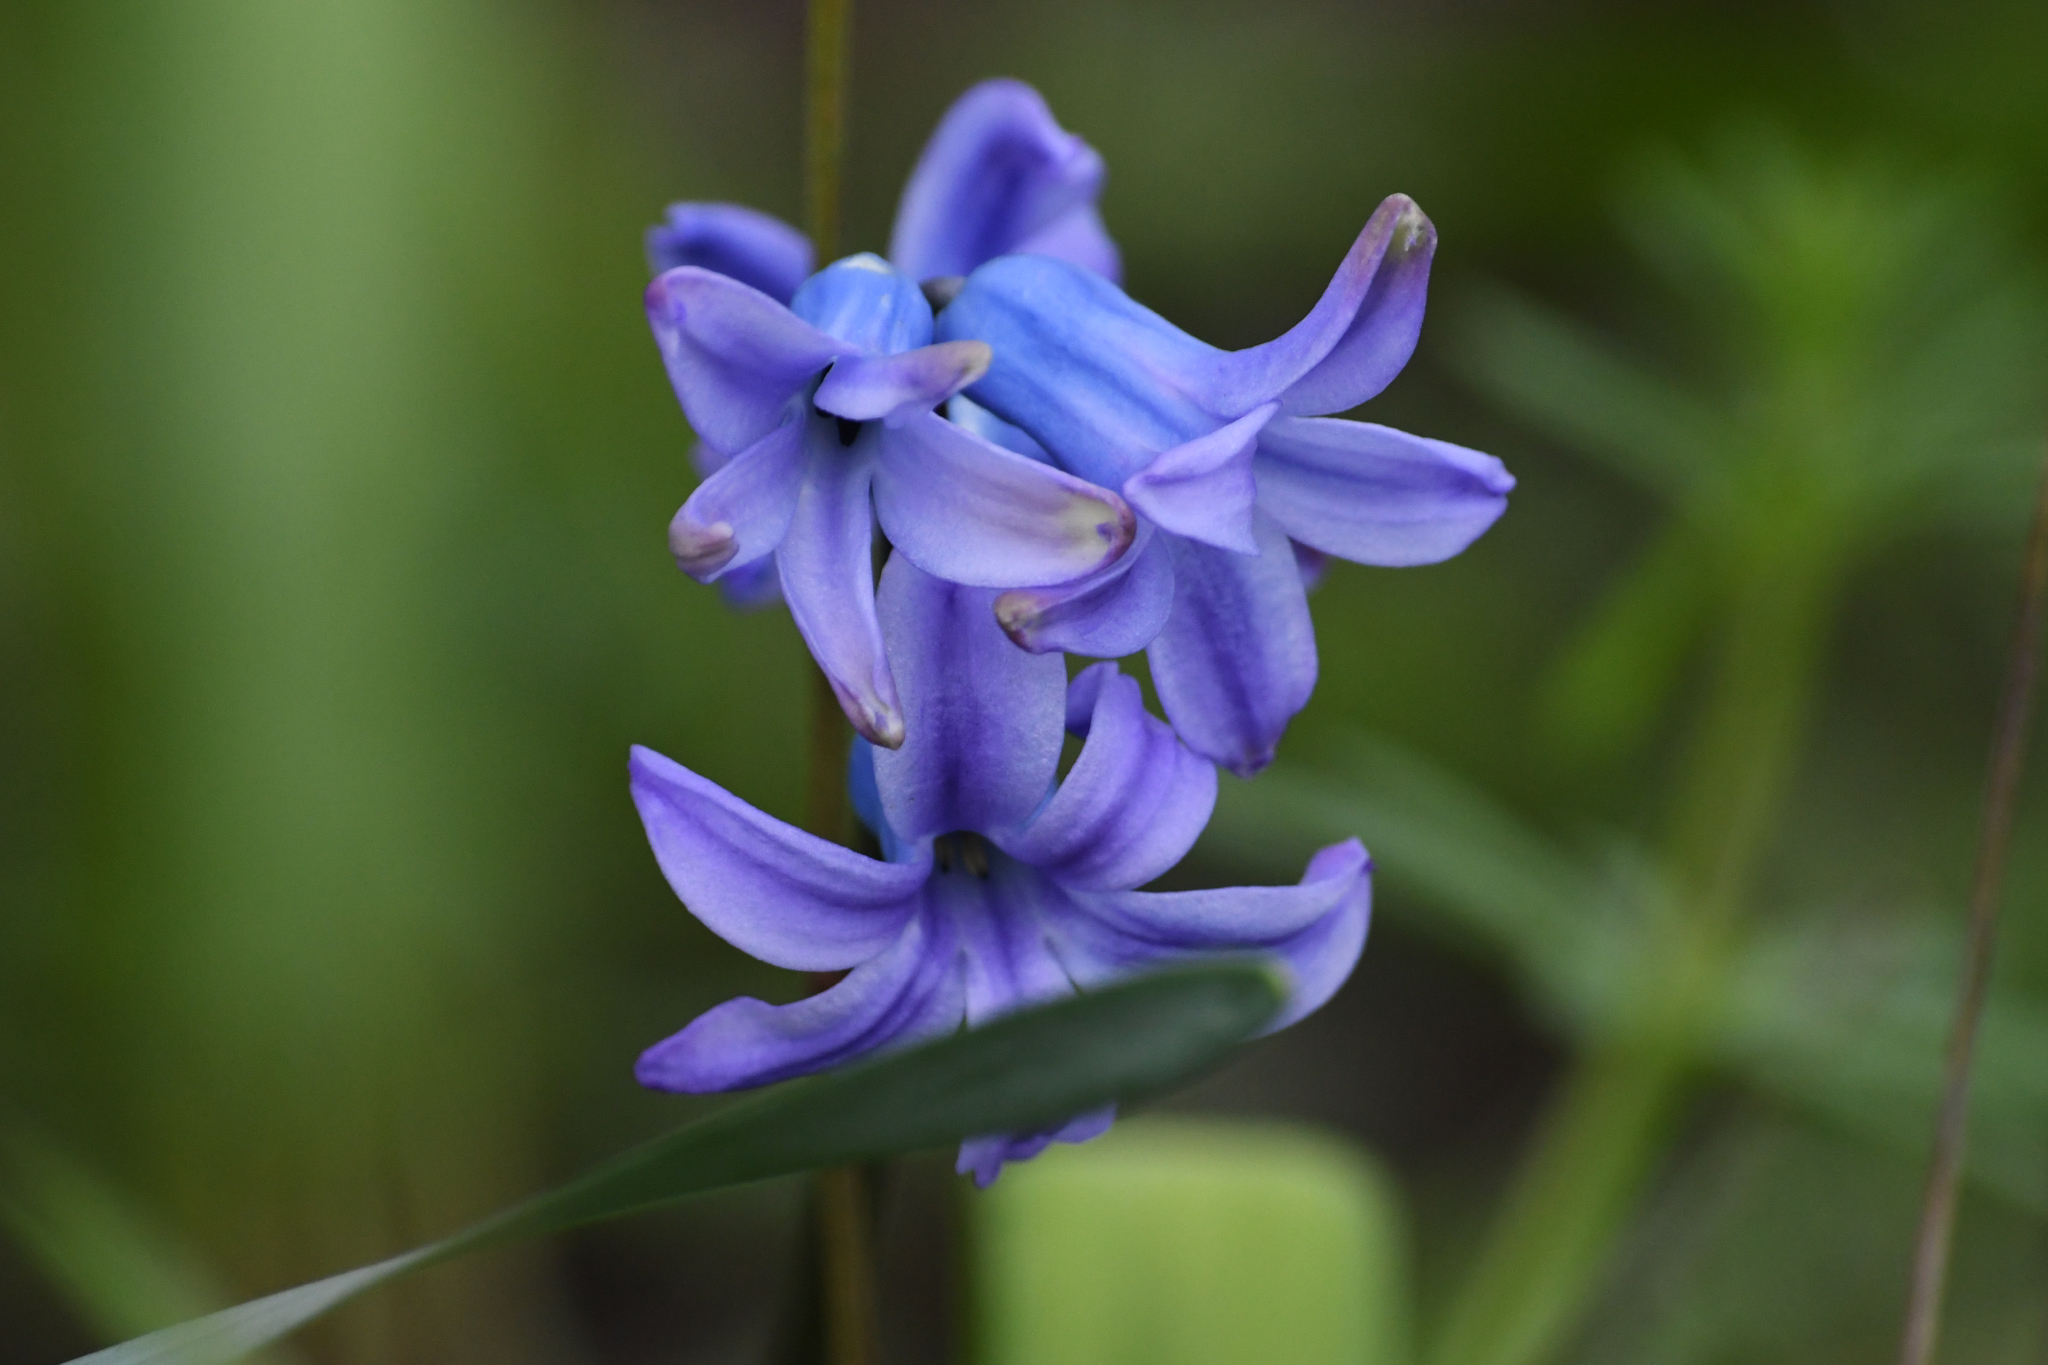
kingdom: Plantae
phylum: Tracheophyta
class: Liliopsida
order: Asparagales
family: Asparagaceae
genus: Hyacinthus
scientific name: Hyacinthus orientalis
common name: Hyacinth
